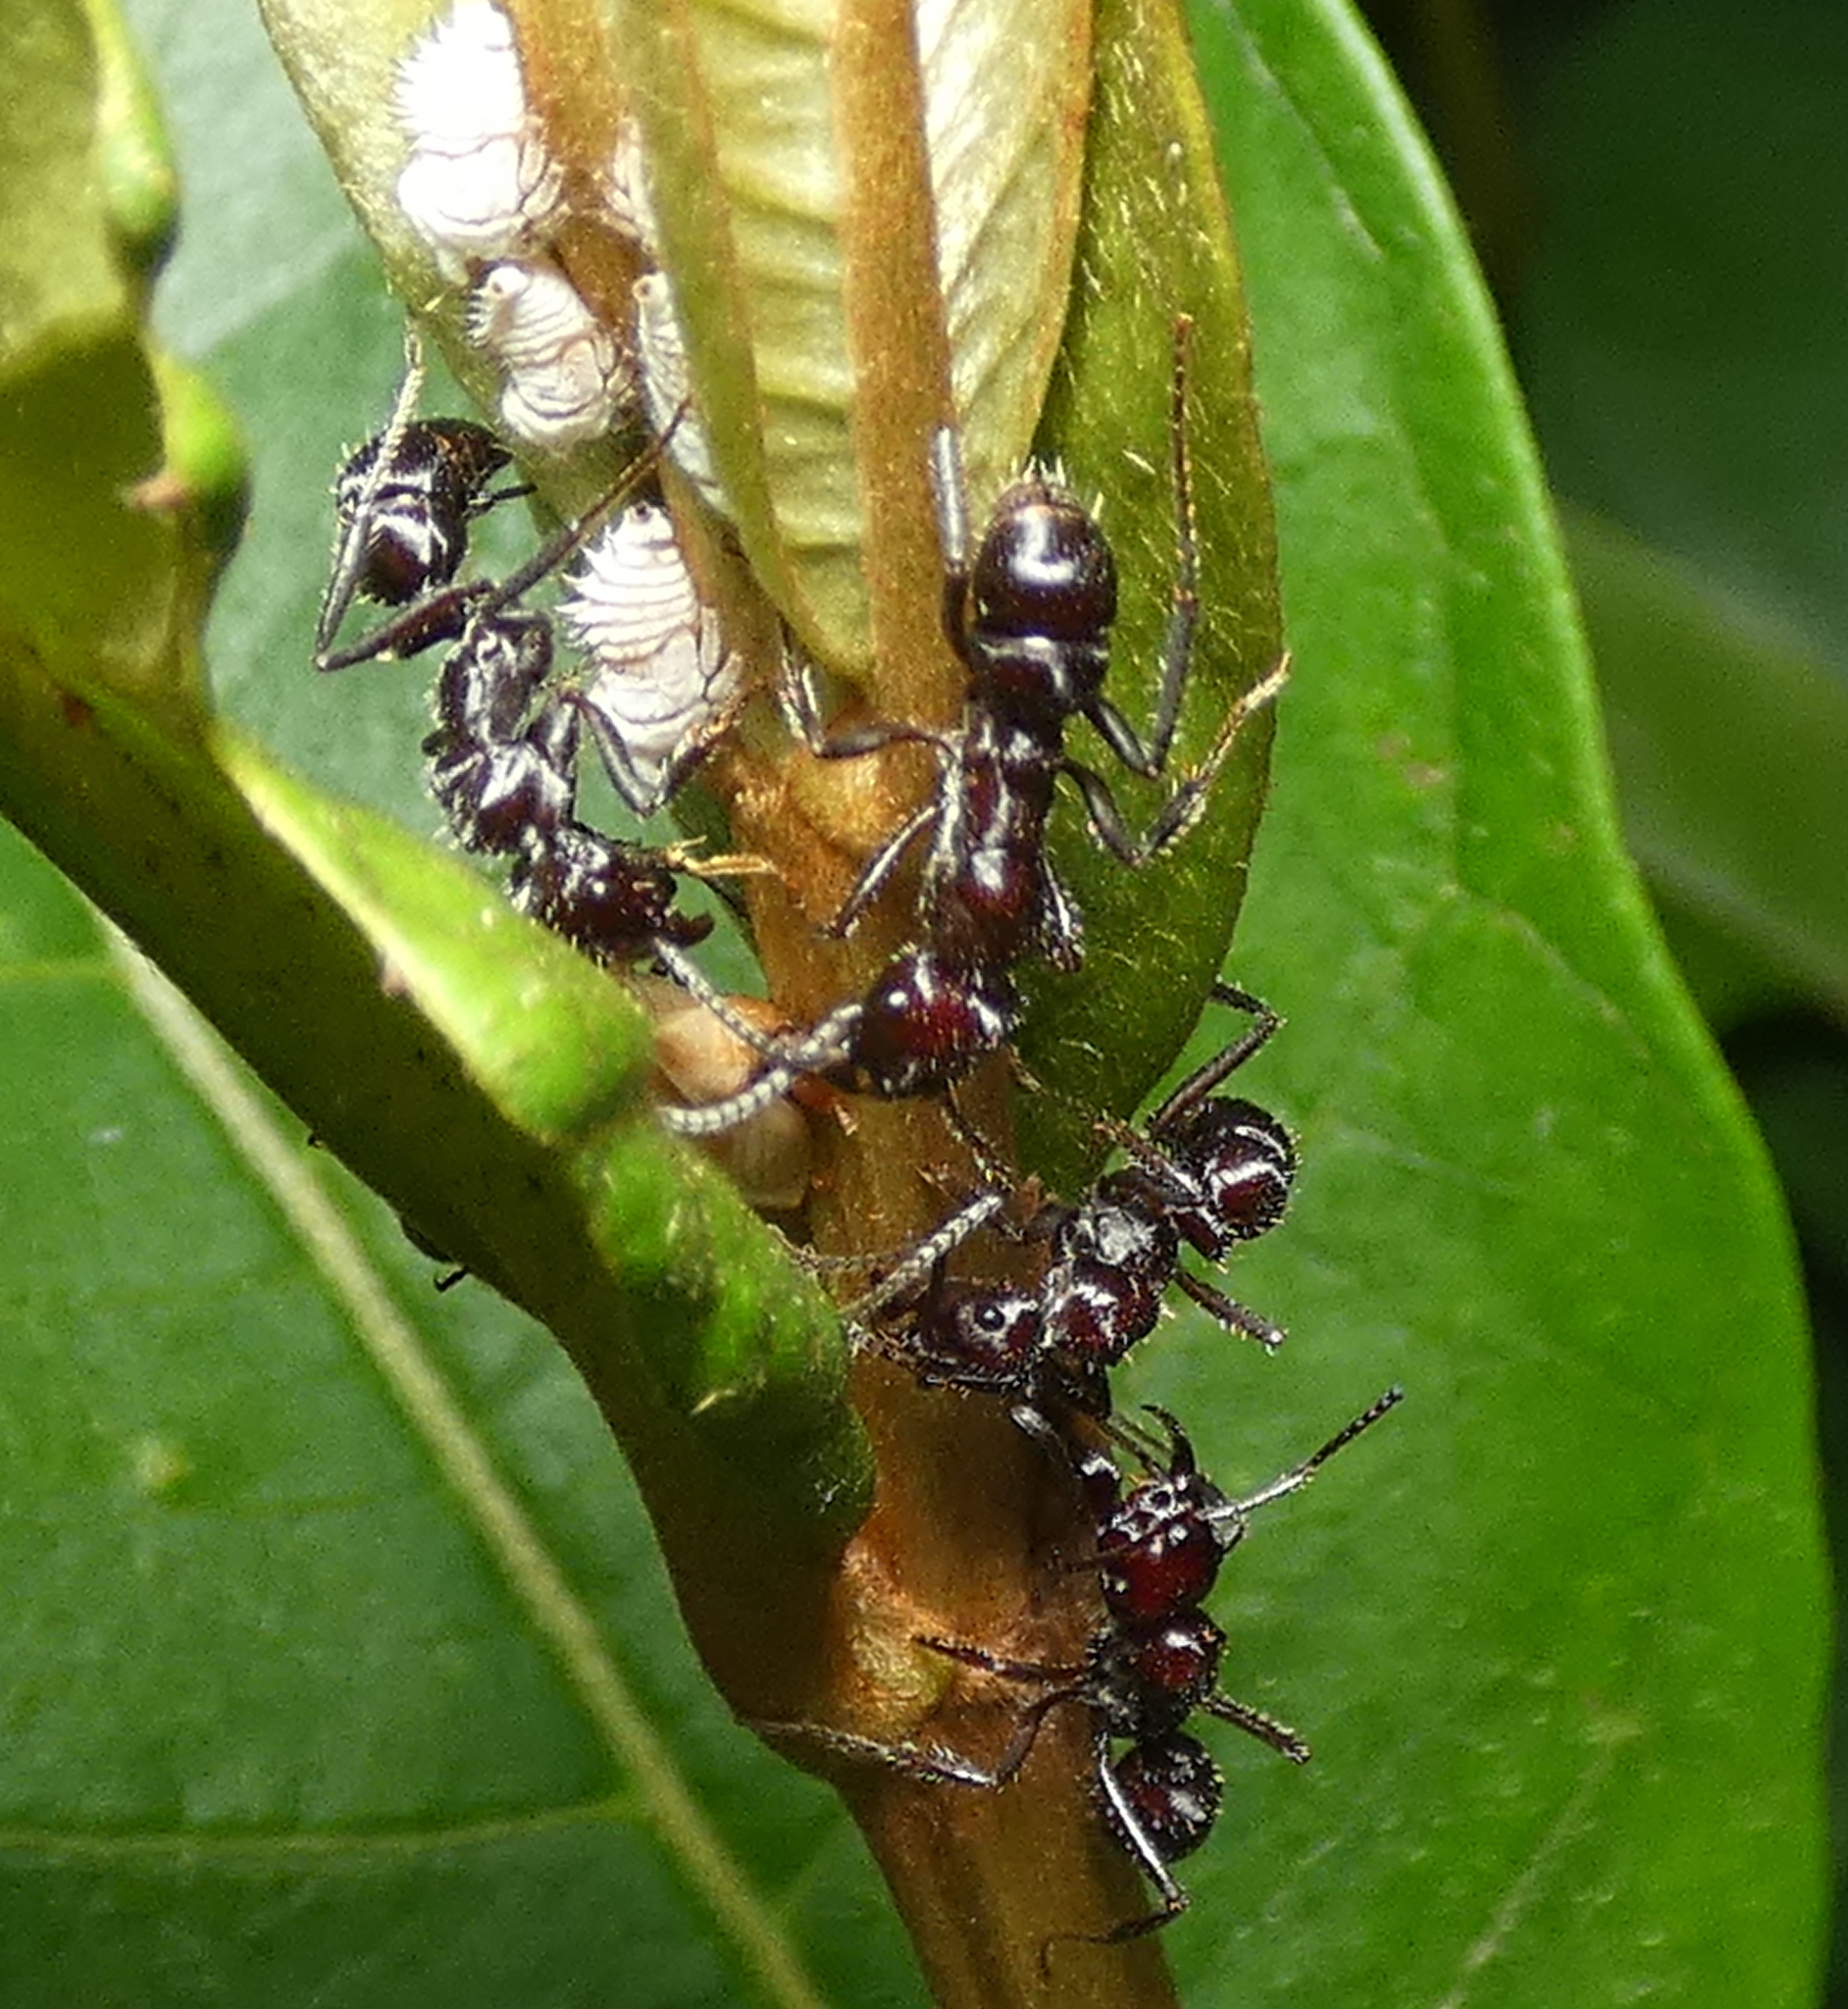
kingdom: Animalia
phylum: Arthropoda
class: Insecta
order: Hymenoptera
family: Formicidae
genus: Ectatomma
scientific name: Ectatomma brunneum
